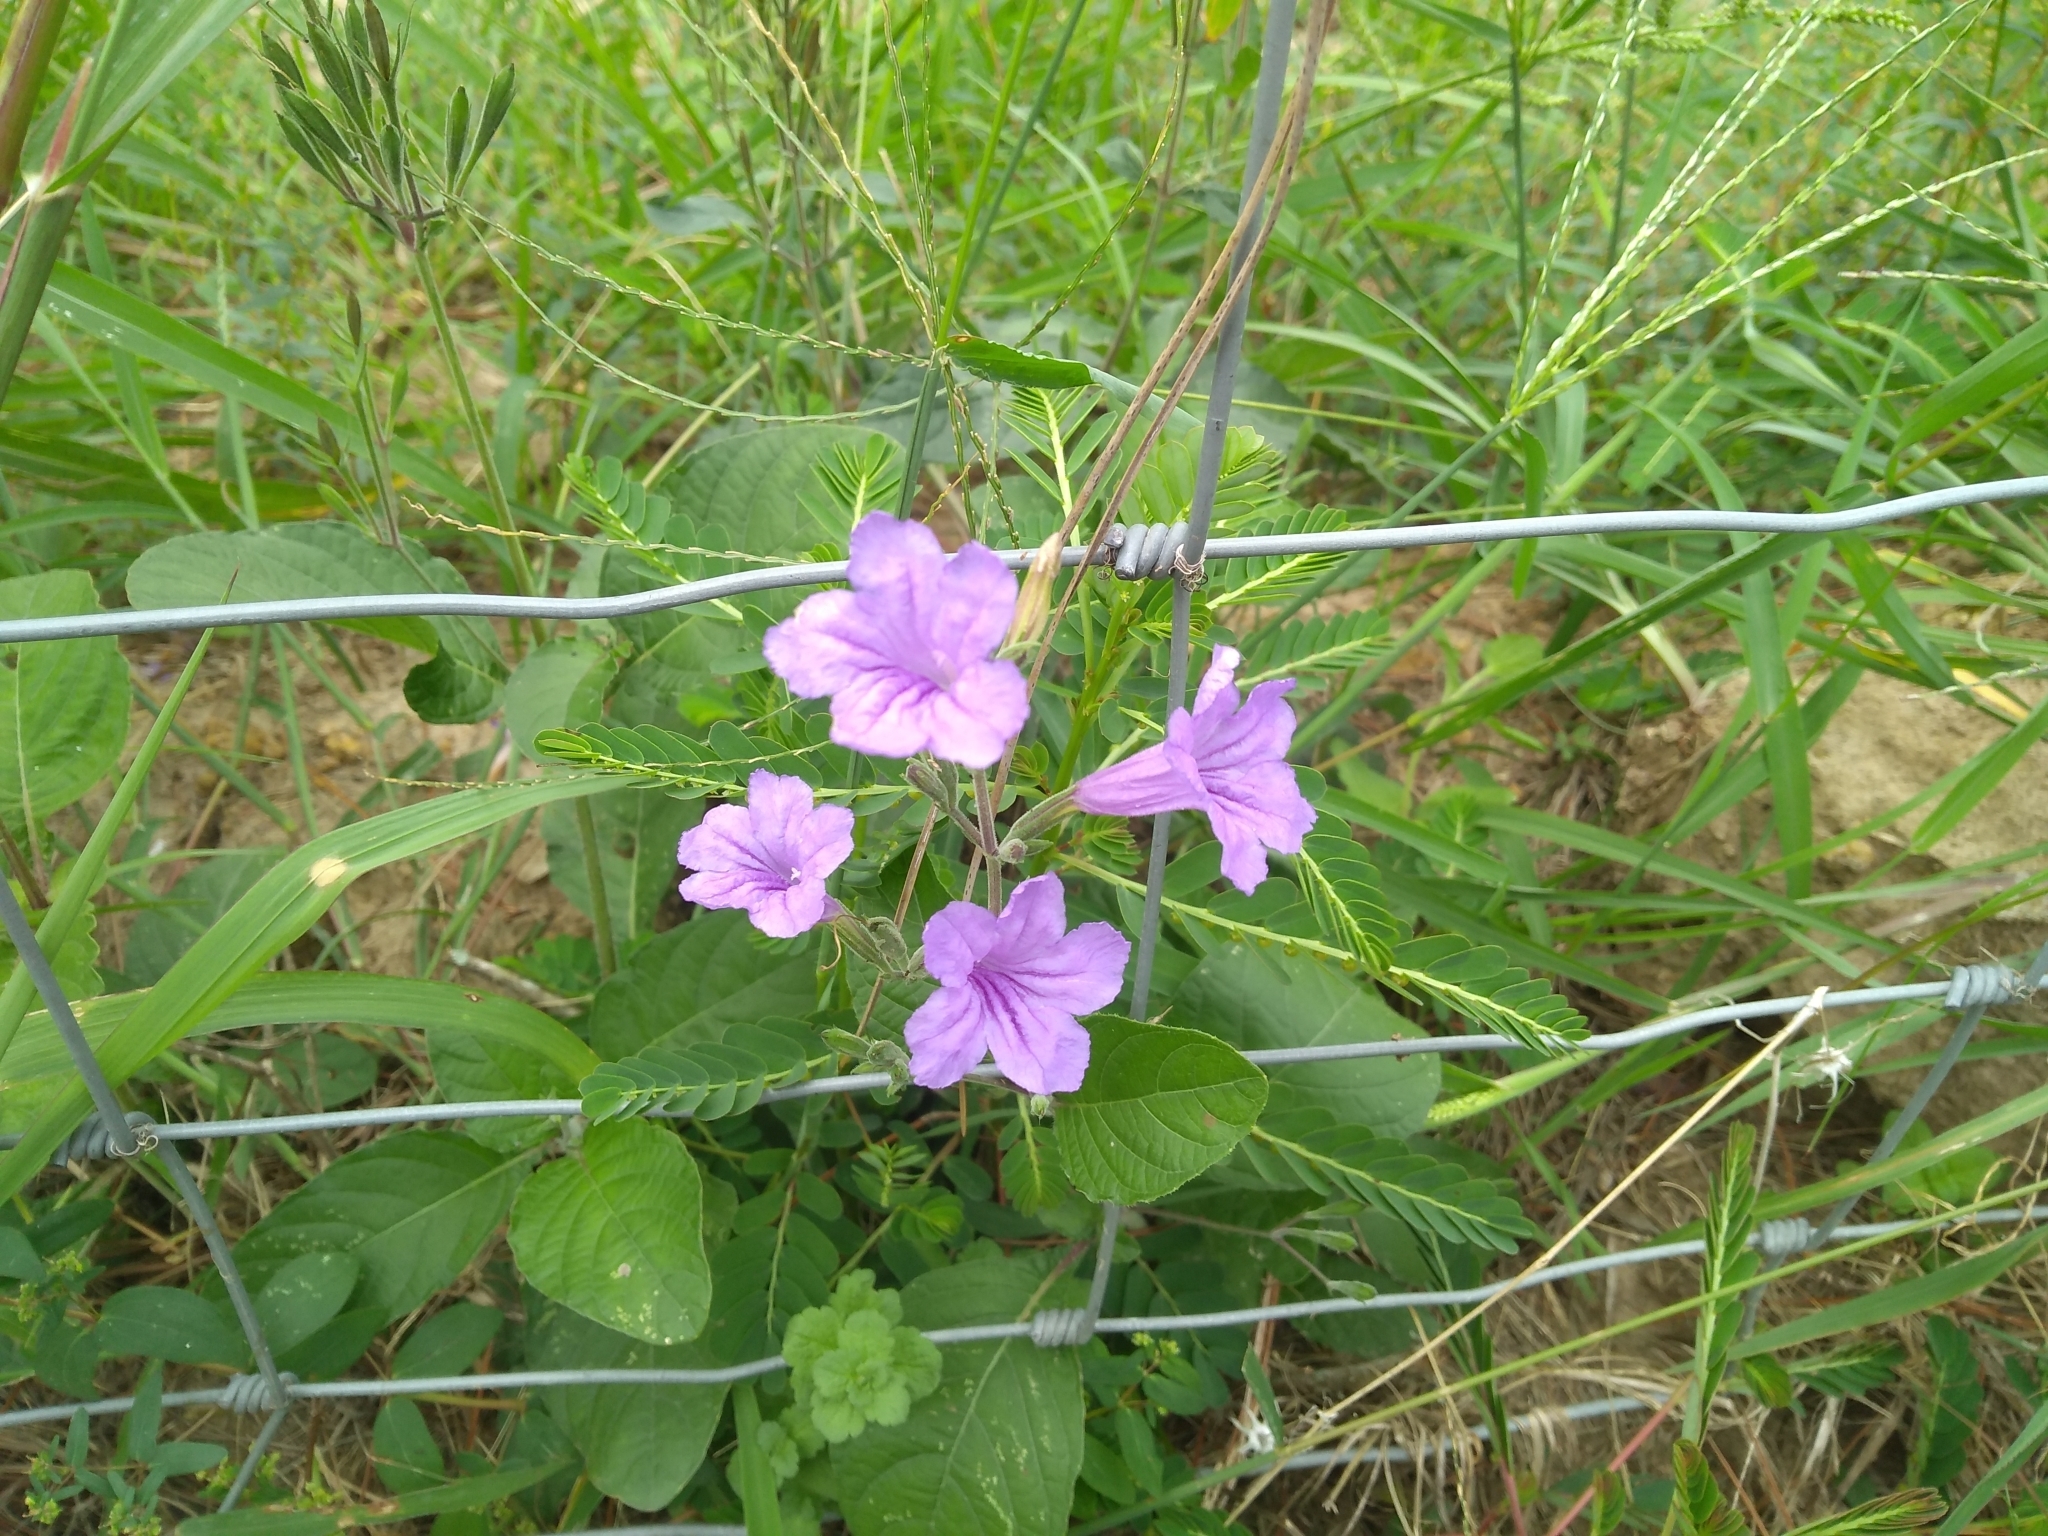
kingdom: Plantae
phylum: Tracheophyta
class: Magnoliopsida
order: Lamiales
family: Acanthaceae
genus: Ruellia
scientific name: Ruellia ciliatiflora
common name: Hairyflower wild petunia
